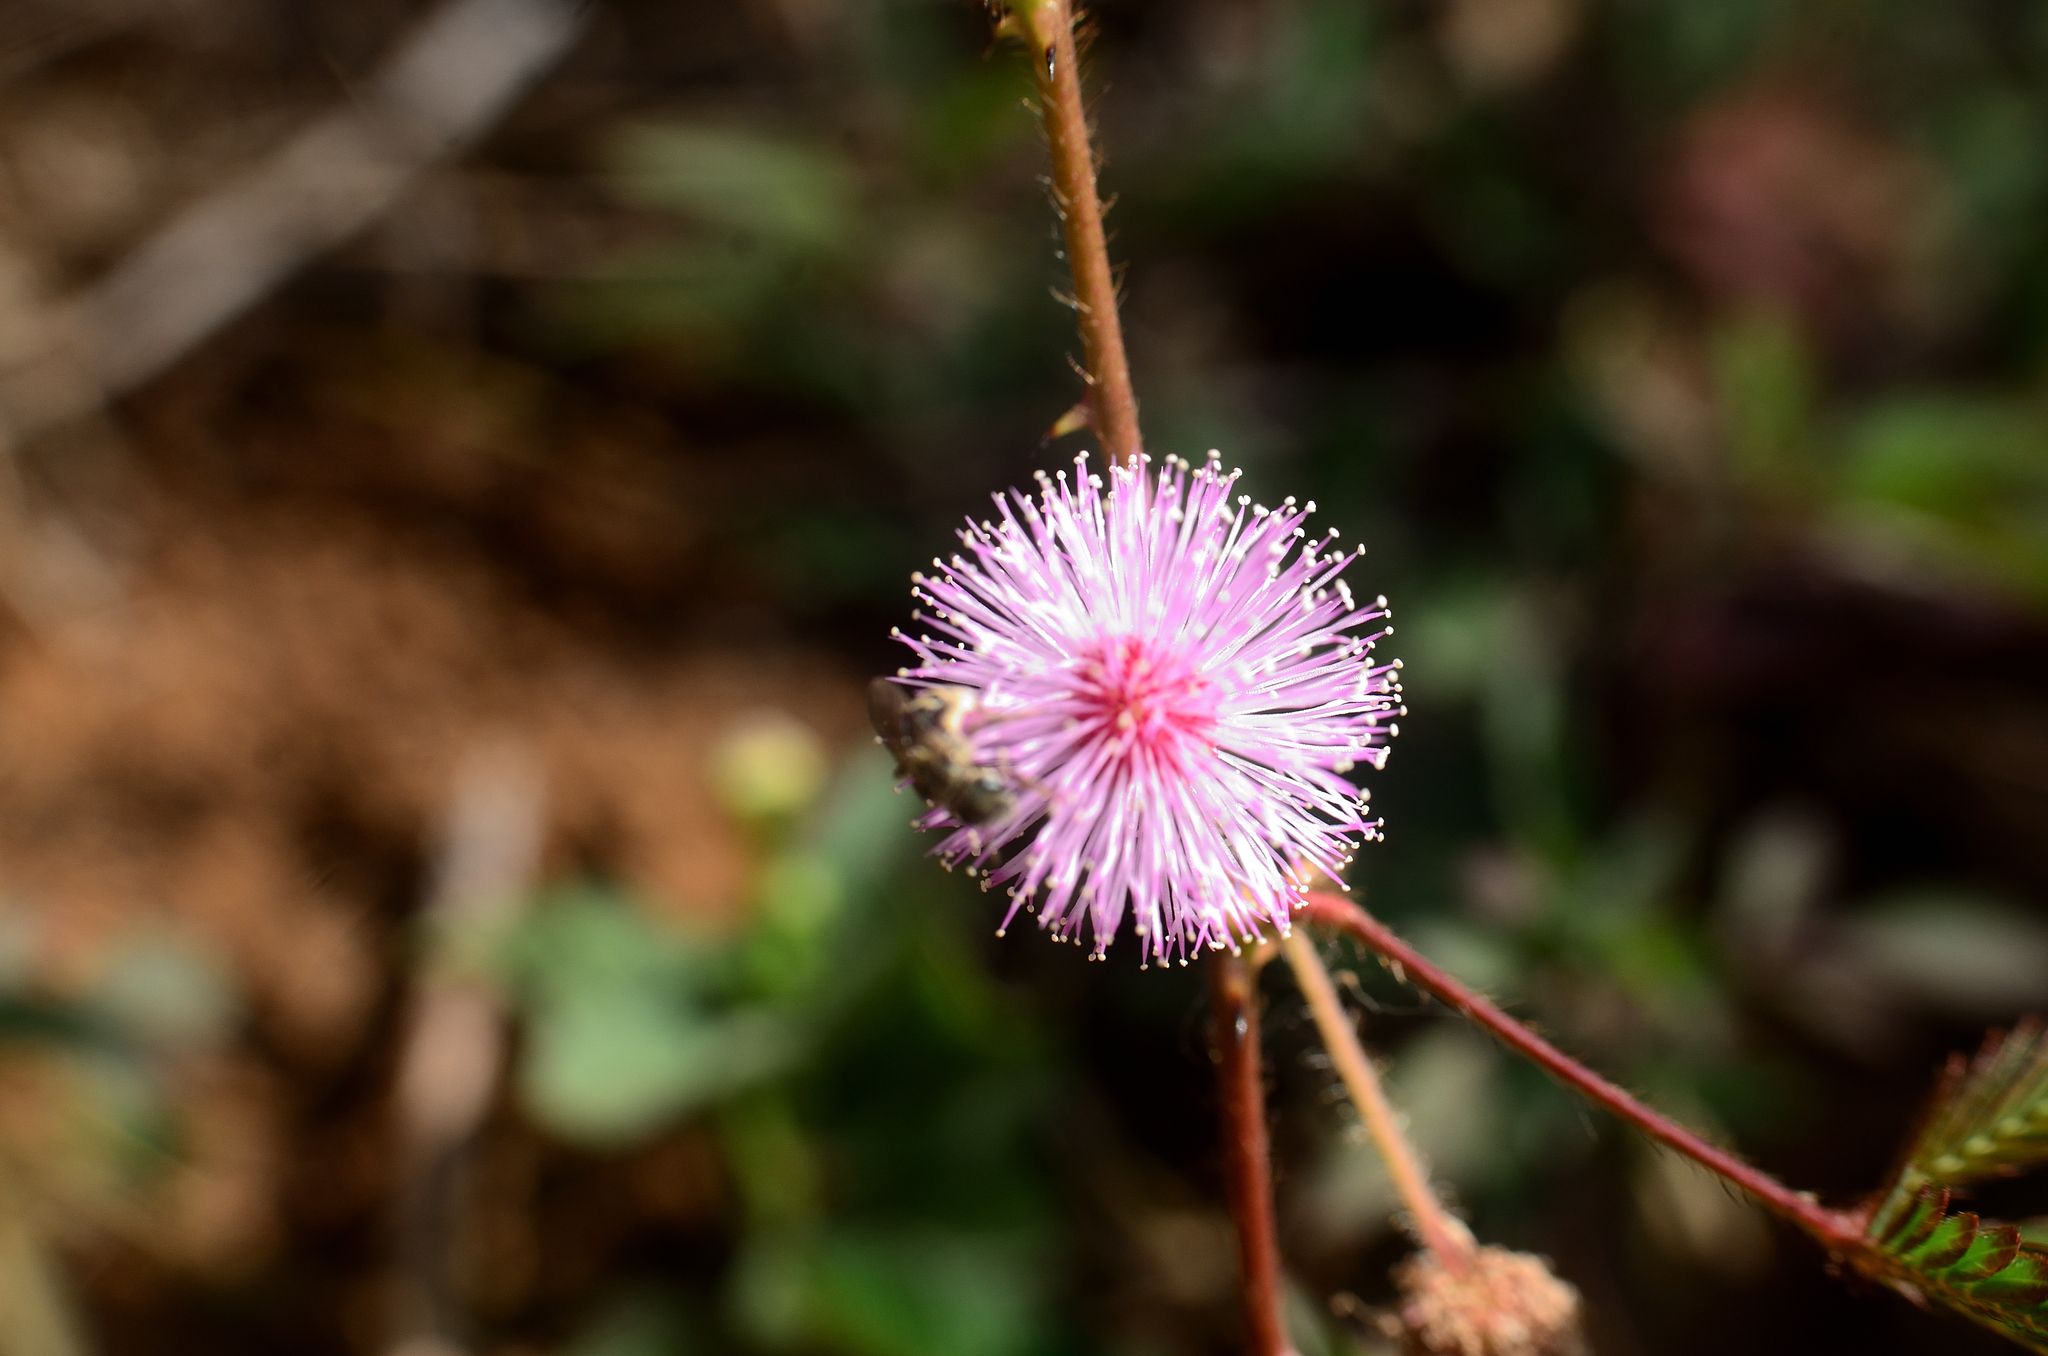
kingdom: Plantae
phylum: Tracheophyta
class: Magnoliopsida
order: Fabales
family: Fabaceae
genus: Mimosa
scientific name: Mimosa pudica
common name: Sensitive plant
